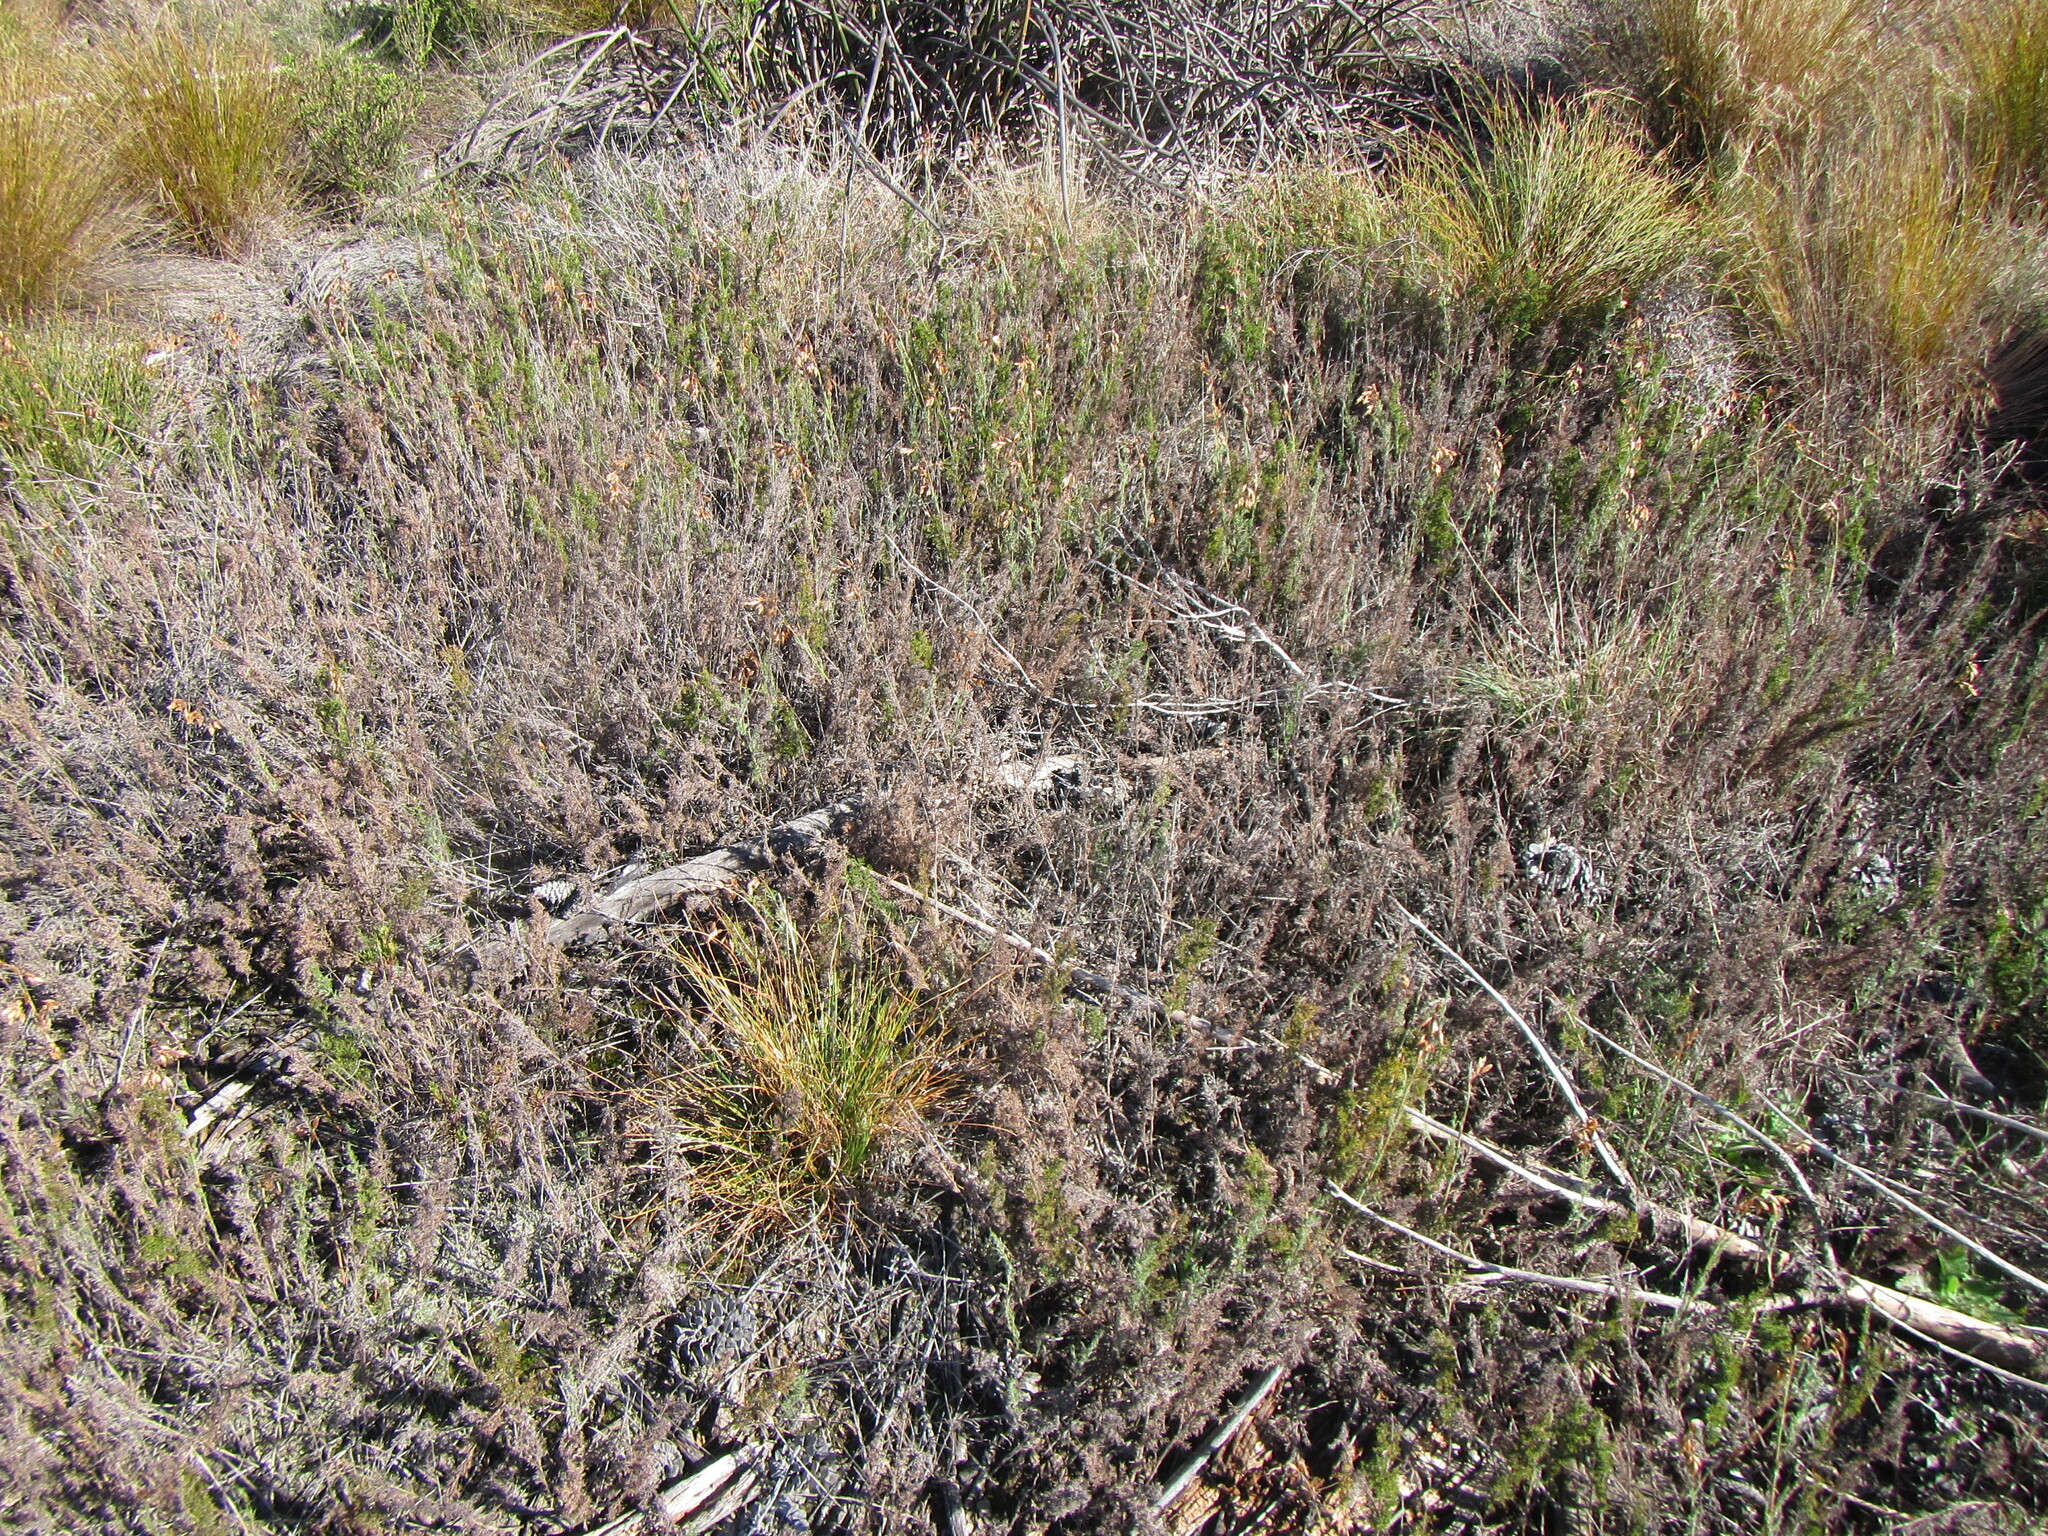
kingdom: Plantae
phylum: Tracheophyta
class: Liliopsida
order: Poales
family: Restionaceae
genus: Thamnochortus
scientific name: Thamnochortus fruticosus
